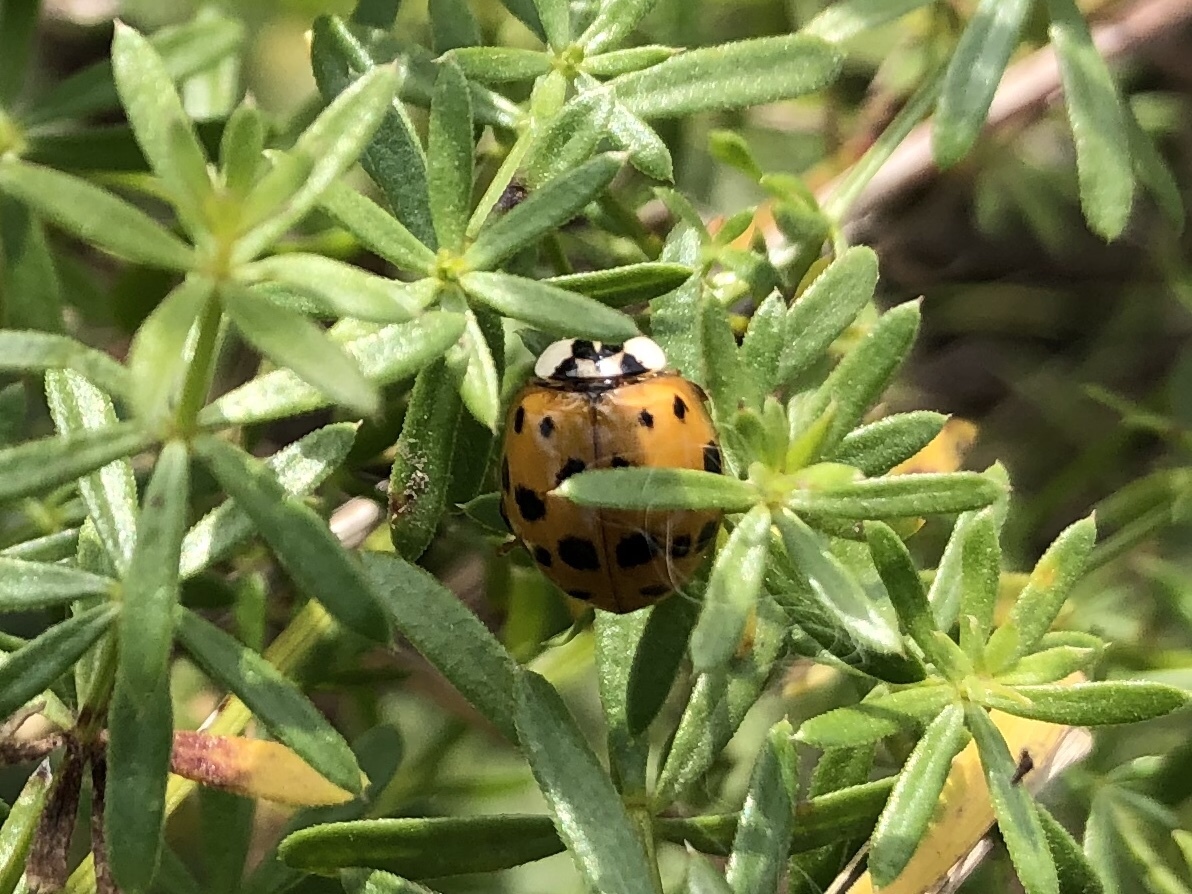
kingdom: Animalia
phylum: Arthropoda
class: Insecta
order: Coleoptera
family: Coccinellidae
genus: Harmonia
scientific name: Harmonia axyridis
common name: Harlequin ladybird
